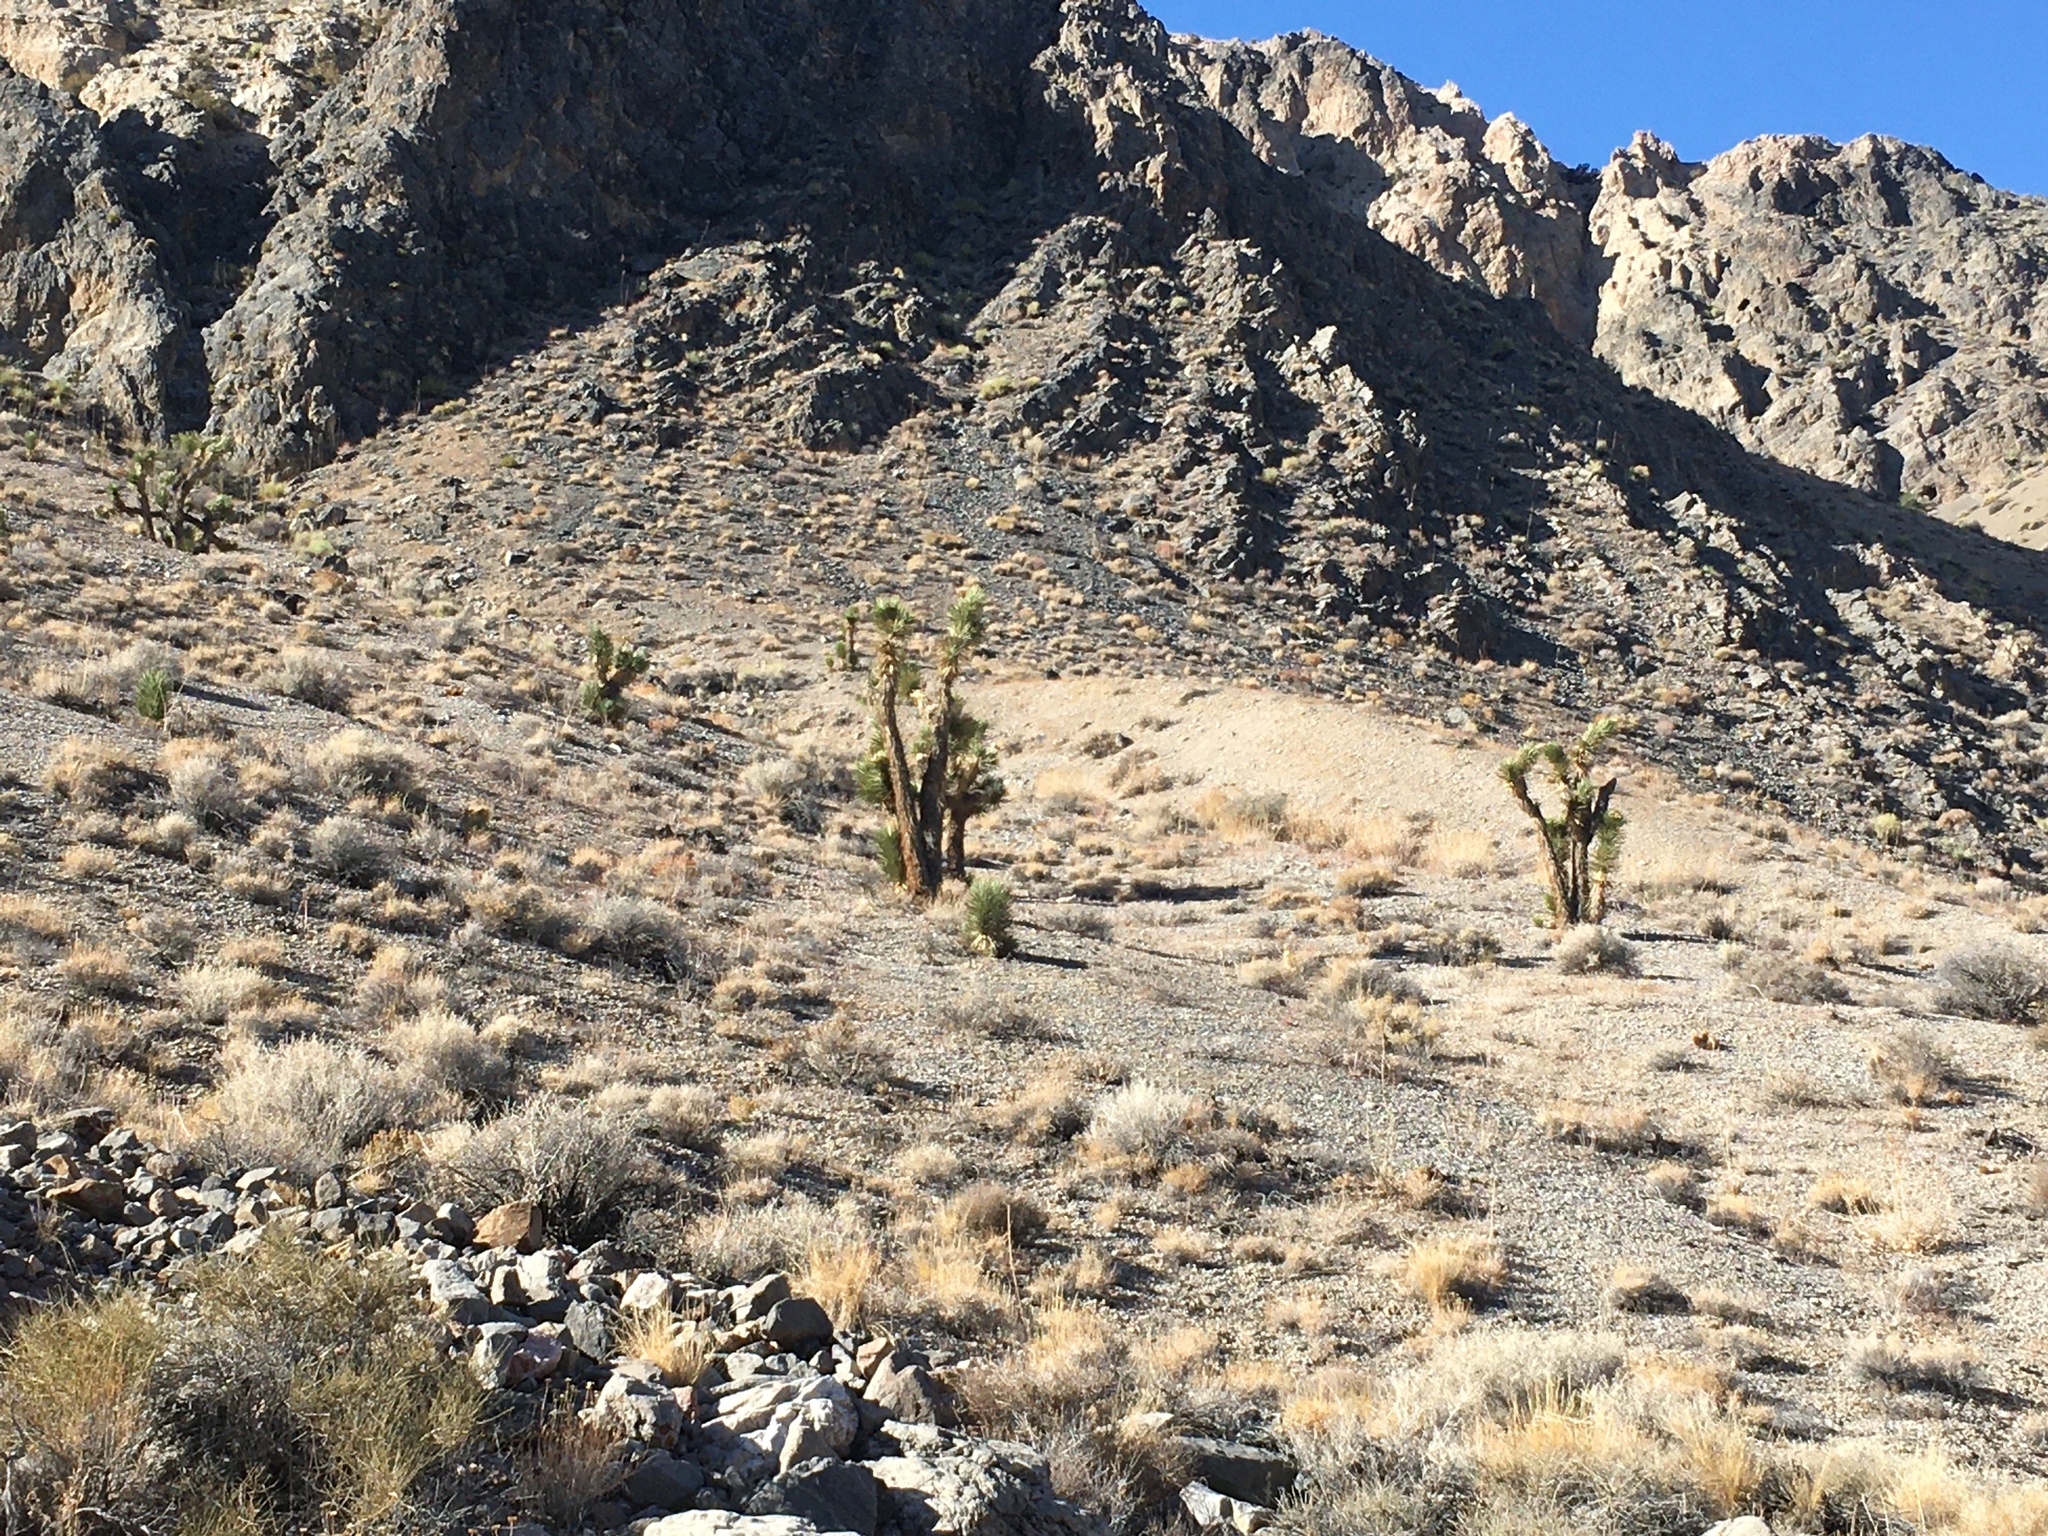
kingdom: Plantae
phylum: Tracheophyta
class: Liliopsida
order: Asparagales
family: Asparagaceae
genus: Yucca
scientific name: Yucca brevifolia
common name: Joshua tree
